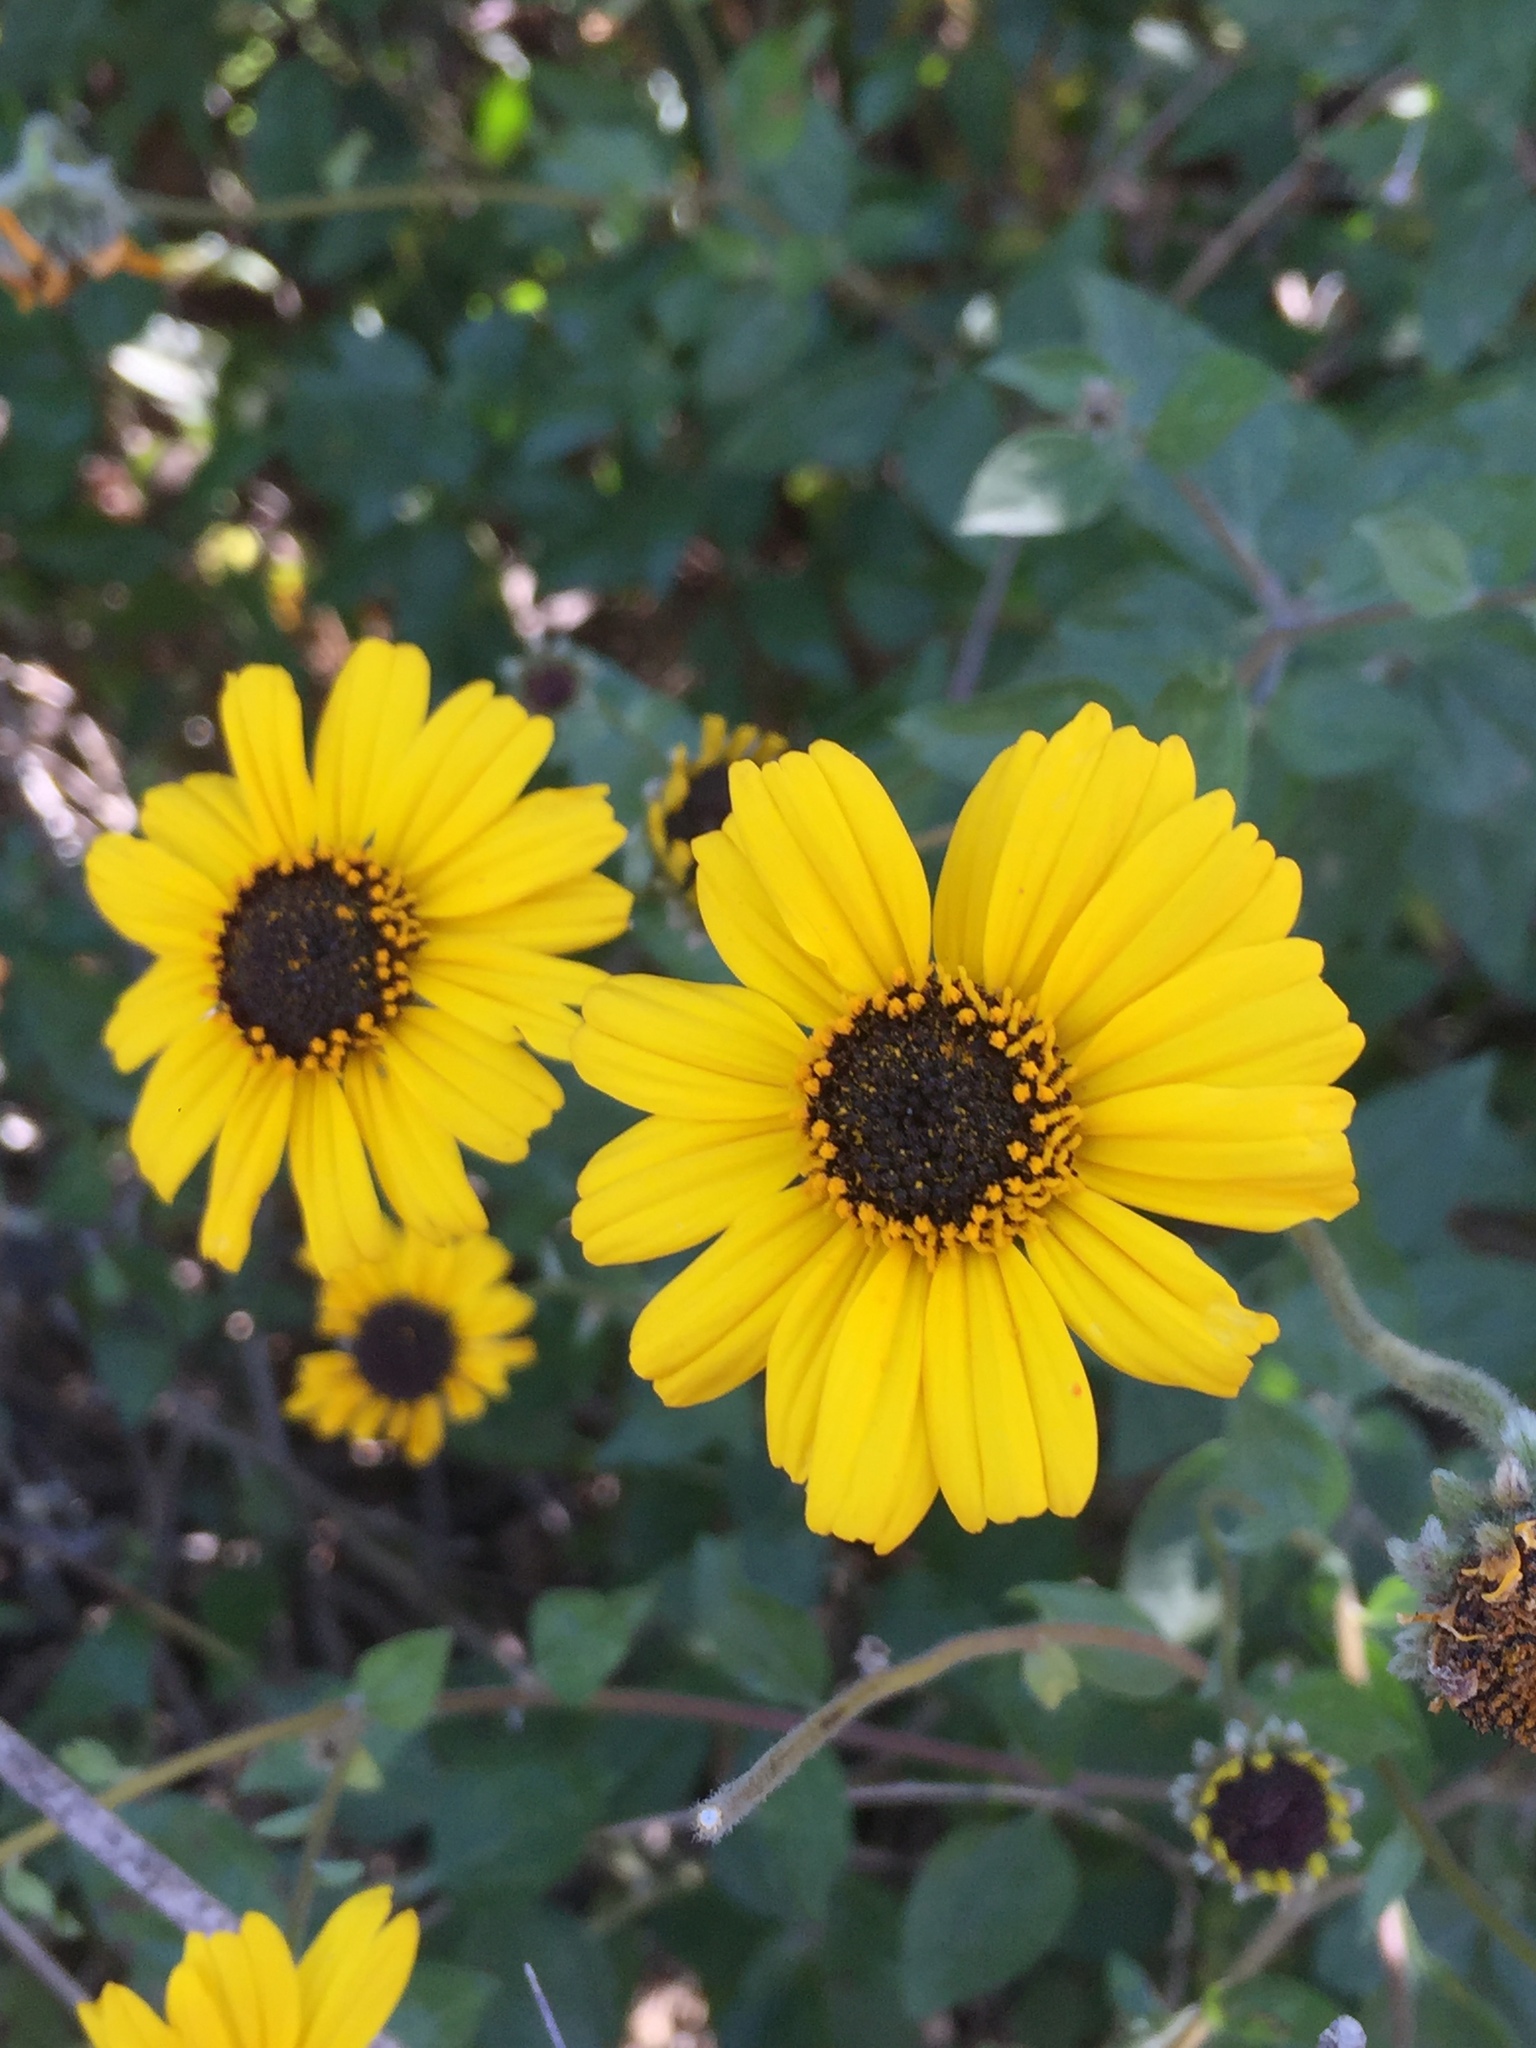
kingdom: Plantae
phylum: Tracheophyta
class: Magnoliopsida
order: Asterales
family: Asteraceae
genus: Encelia
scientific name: Encelia californica
